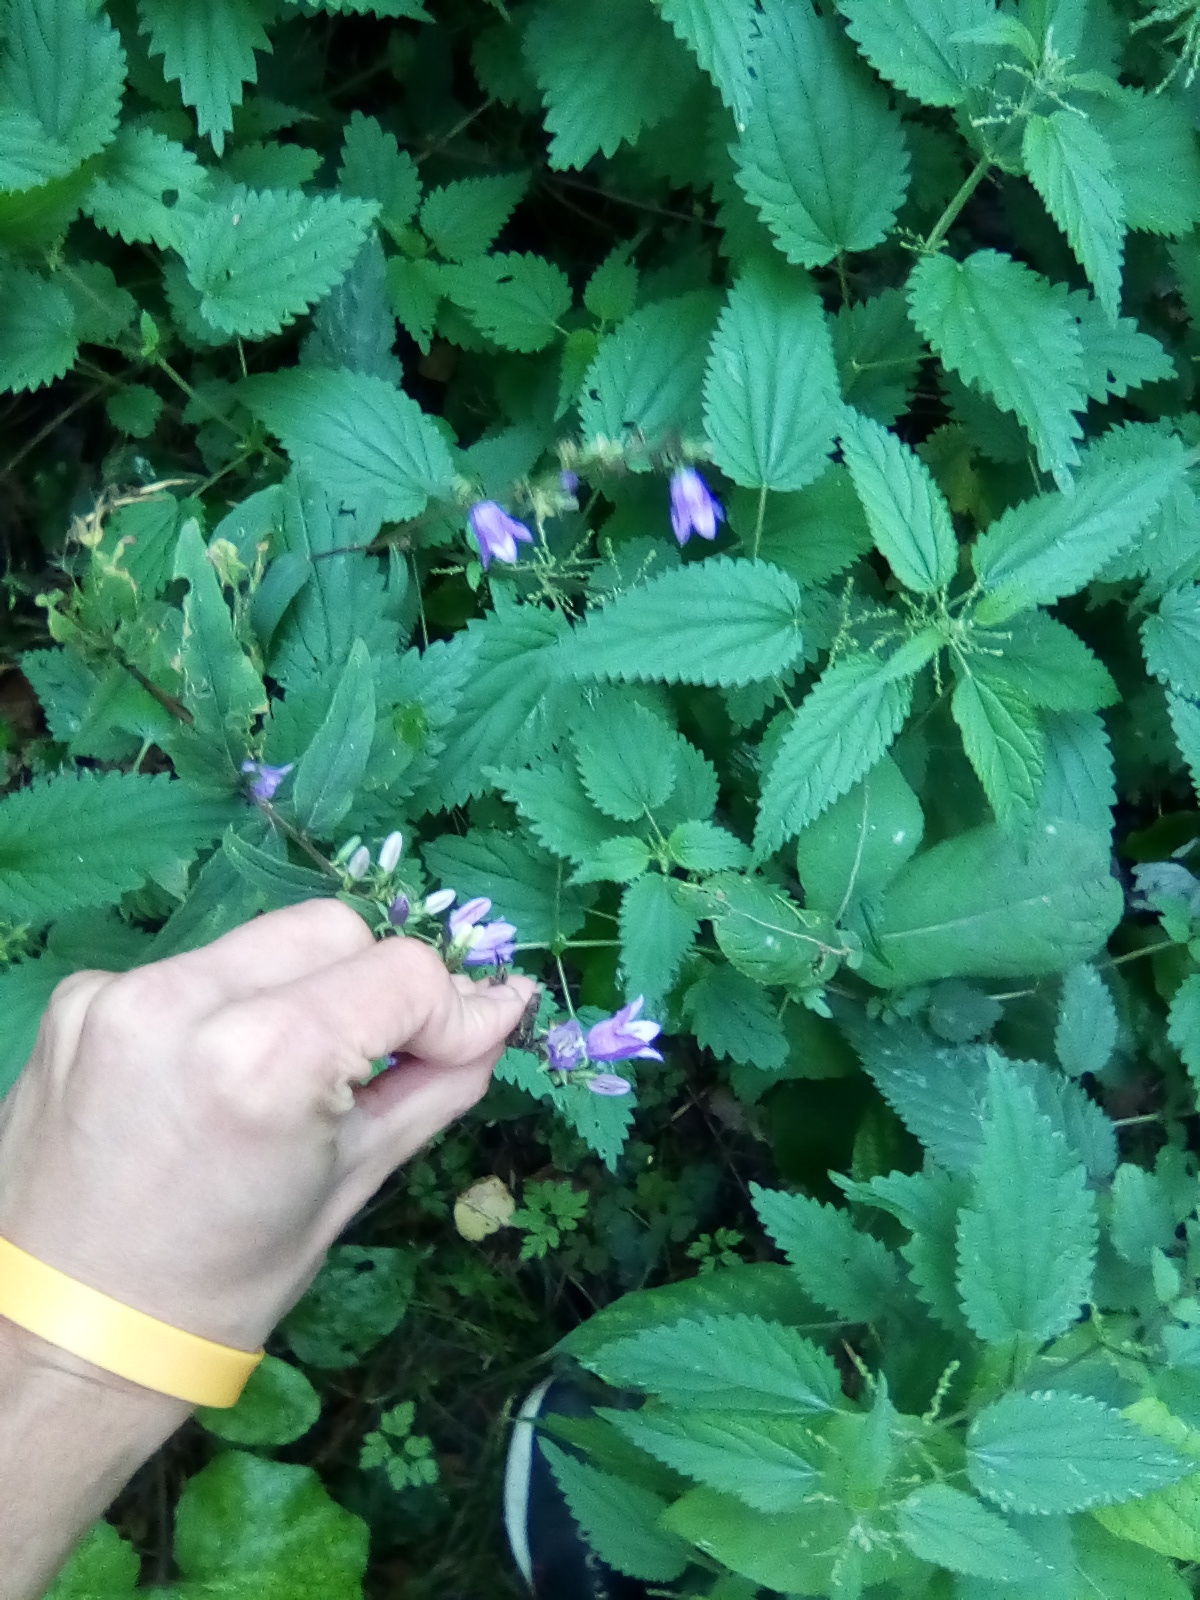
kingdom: Plantae
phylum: Tracheophyta
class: Magnoliopsida
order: Asterales
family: Campanulaceae
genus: Campanula
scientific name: Campanula rapunculoides
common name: Creeping bellflower
